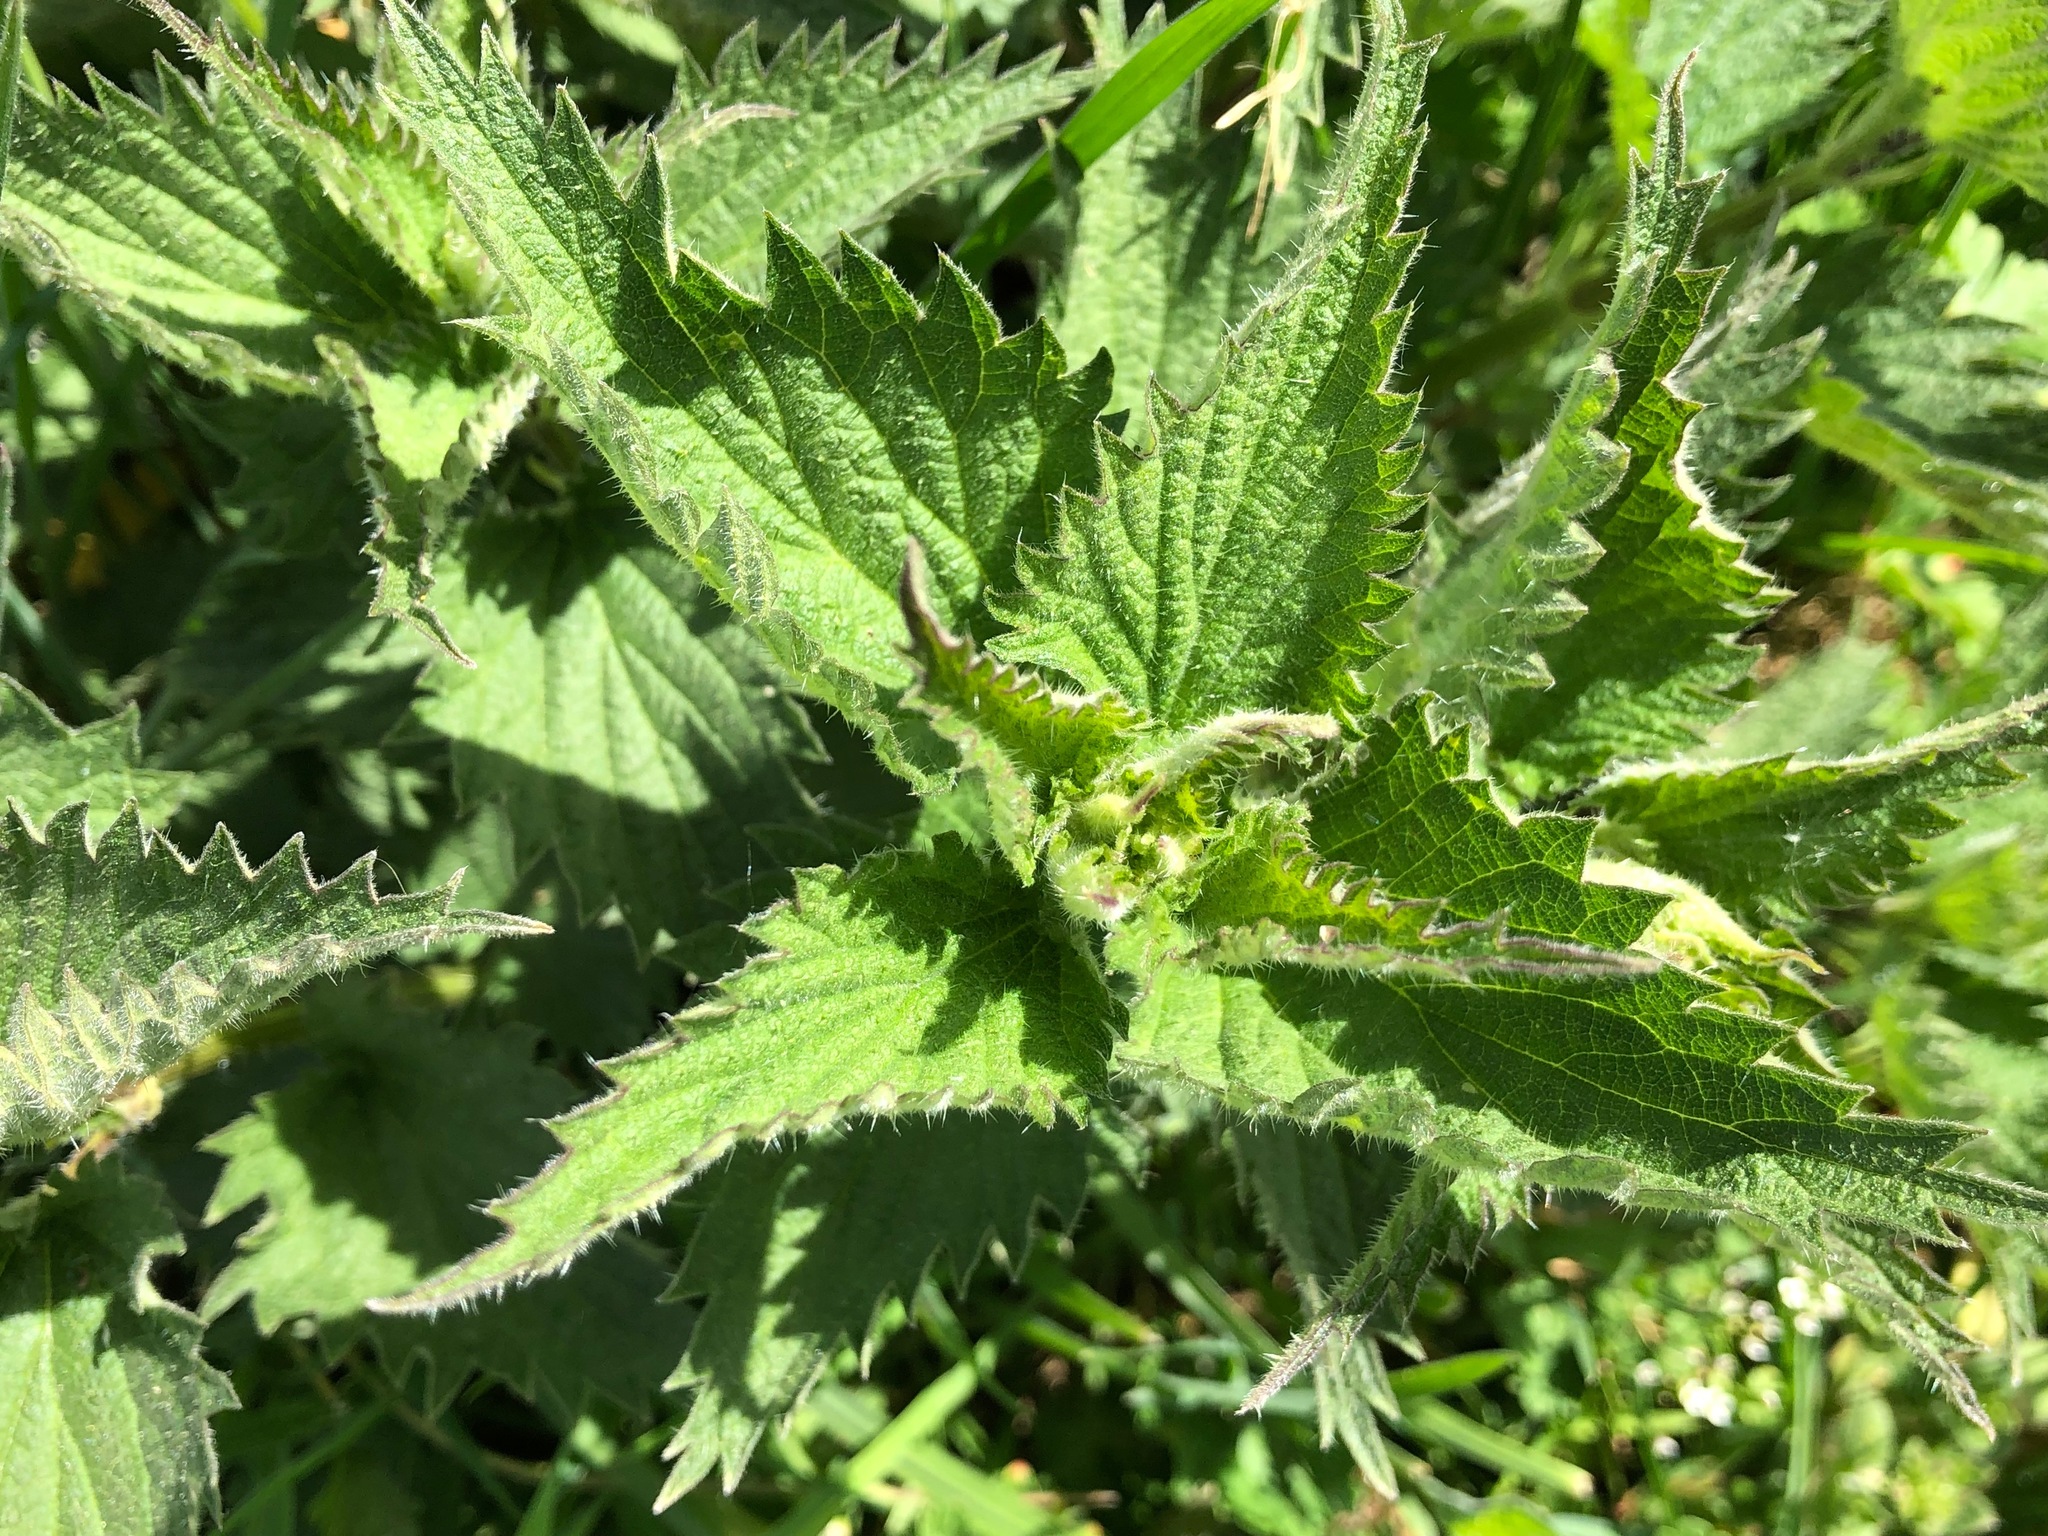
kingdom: Plantae
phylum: Tracheophyta
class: Magnoliopsida
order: Rosales
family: Urticaceae
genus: Urtica
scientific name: Urtica dioica
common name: Common nettle
